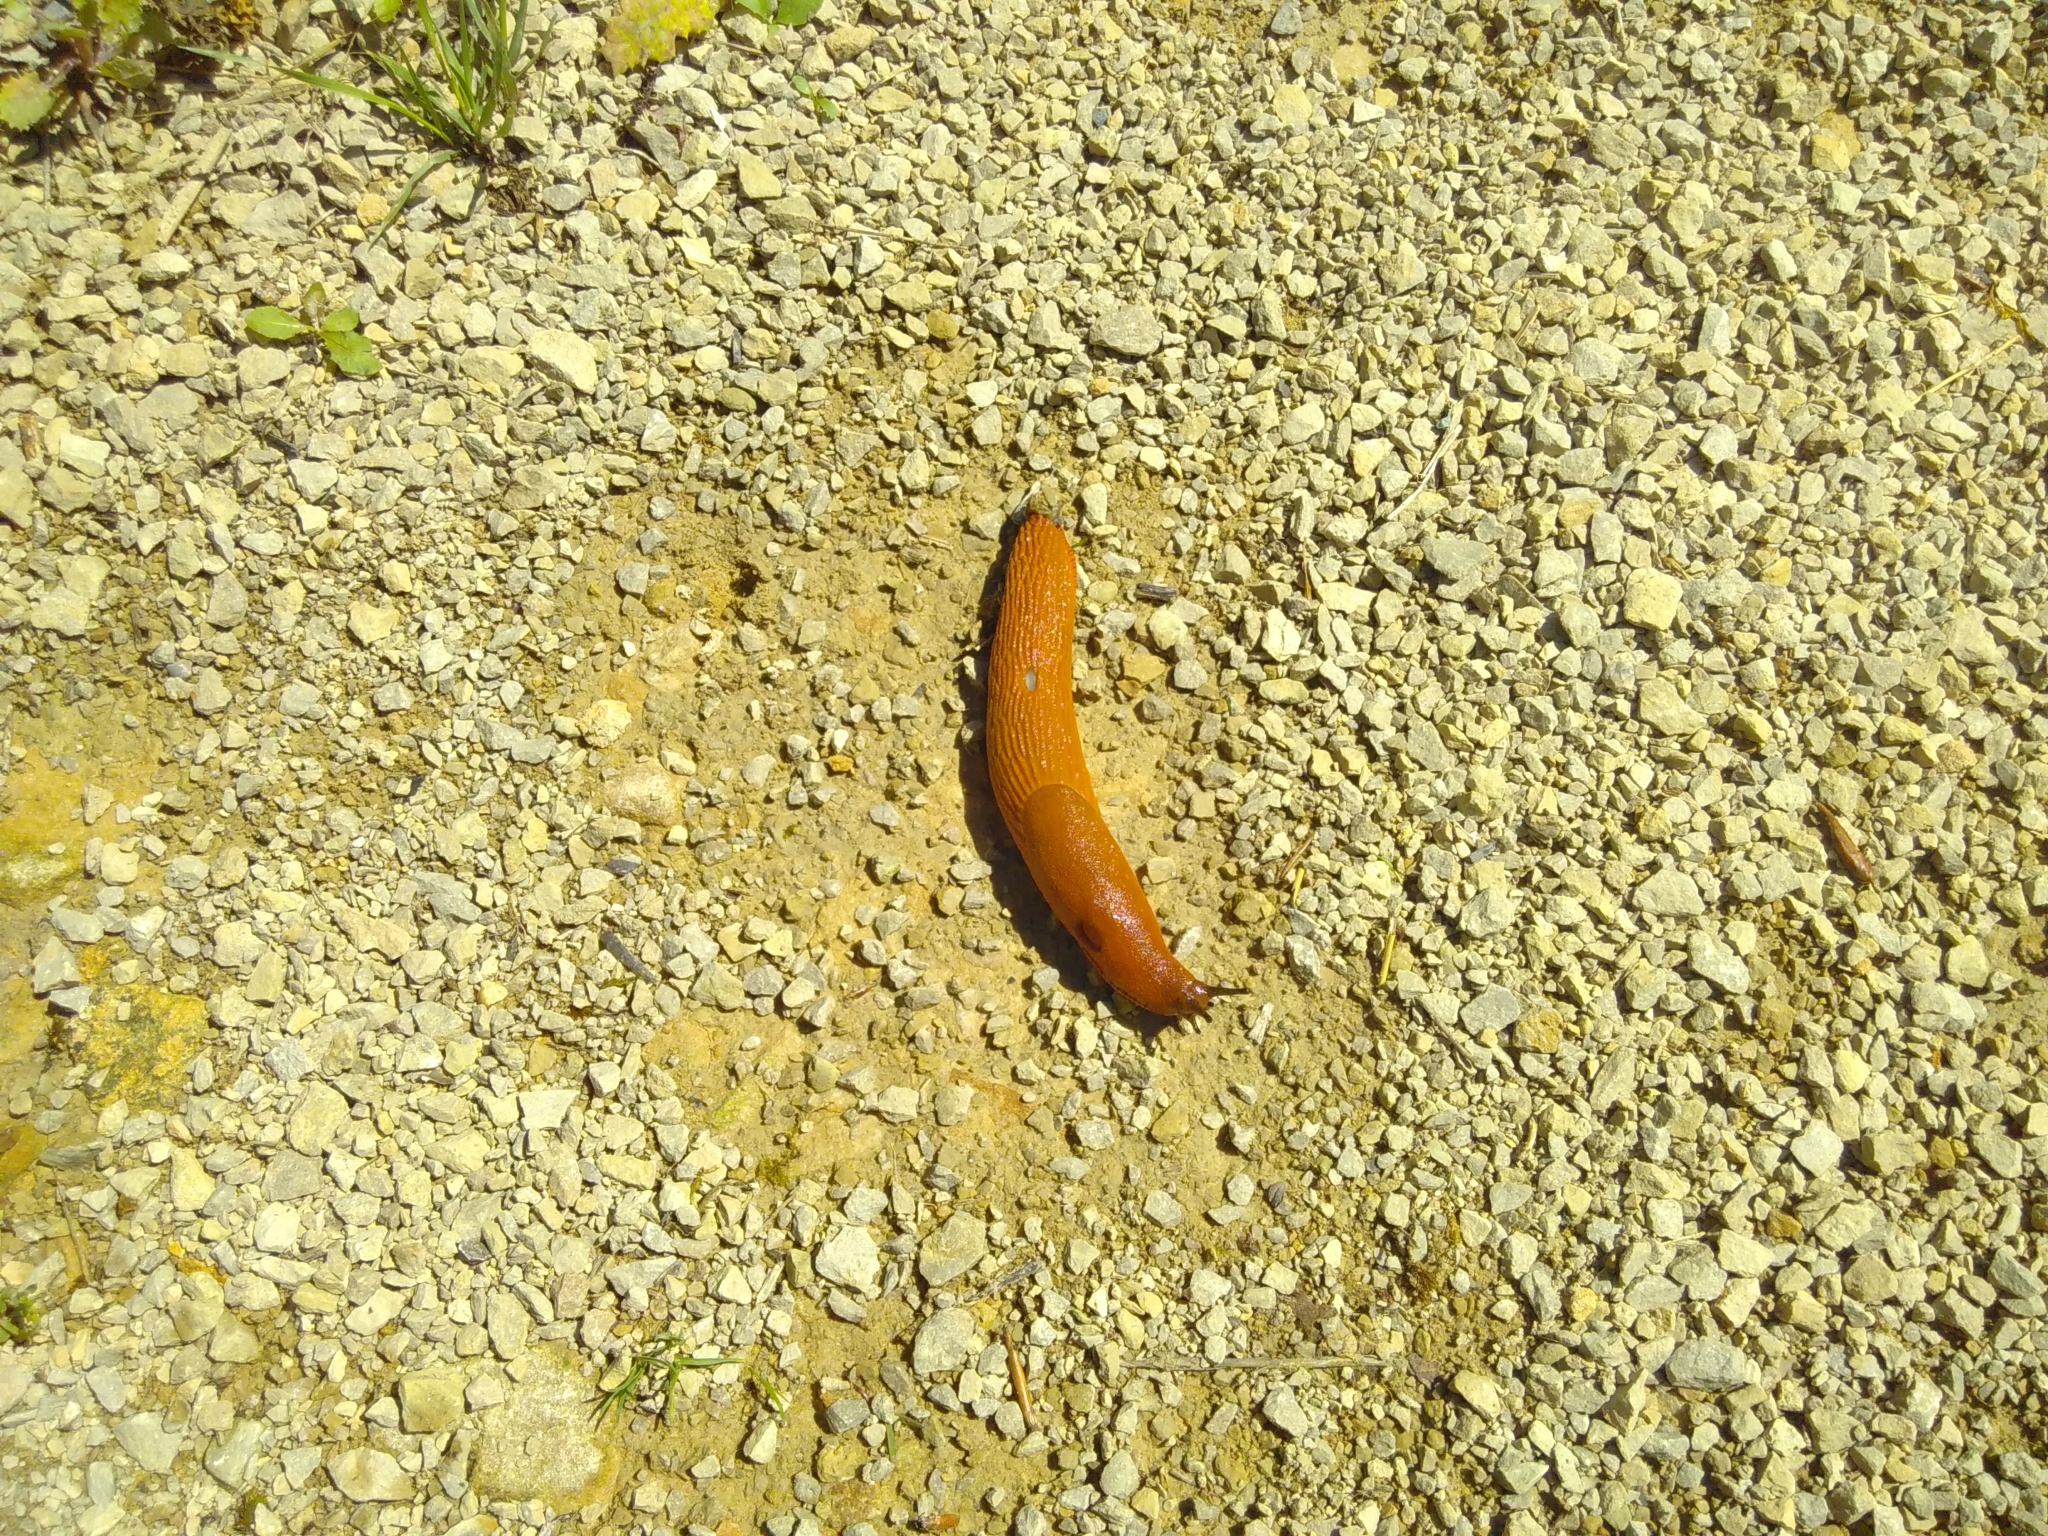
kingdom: Animalia
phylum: Mollusca
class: Gastropoda
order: Stylommatophora
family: Arionidae
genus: Arion
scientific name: Arion rufus
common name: Chocolate arion
